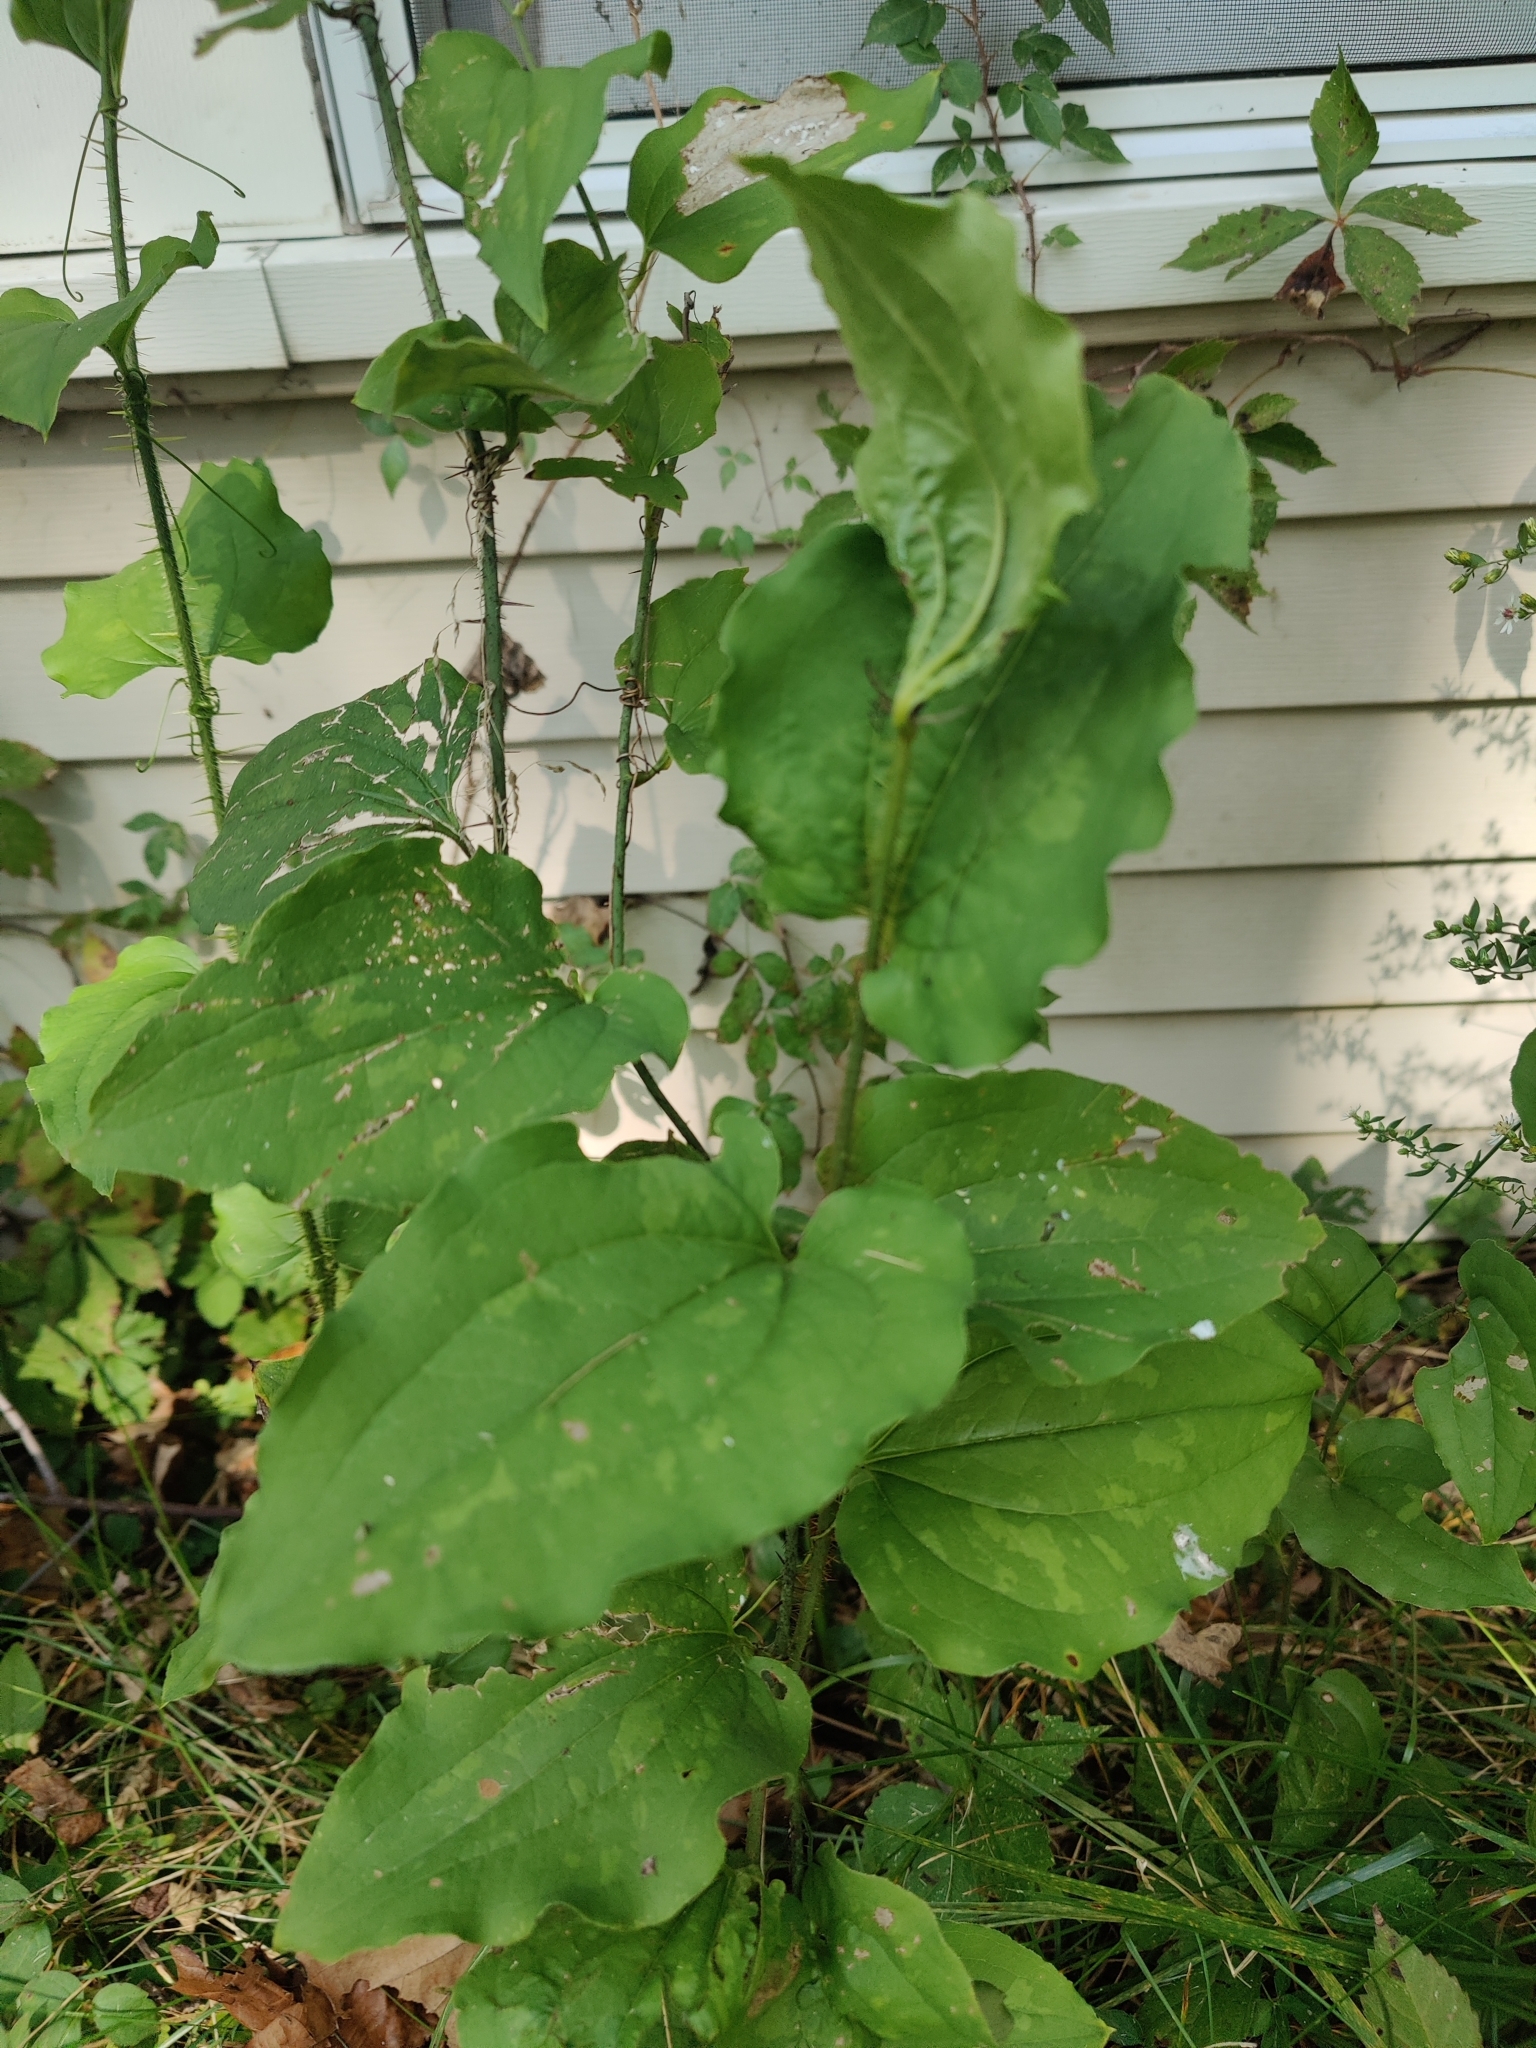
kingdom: Plantae
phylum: Tracheophyta
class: Liliopsida
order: Liliales
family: Smilacaceae
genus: Smilax
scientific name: Smilax tamnoides
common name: Hellfetter
